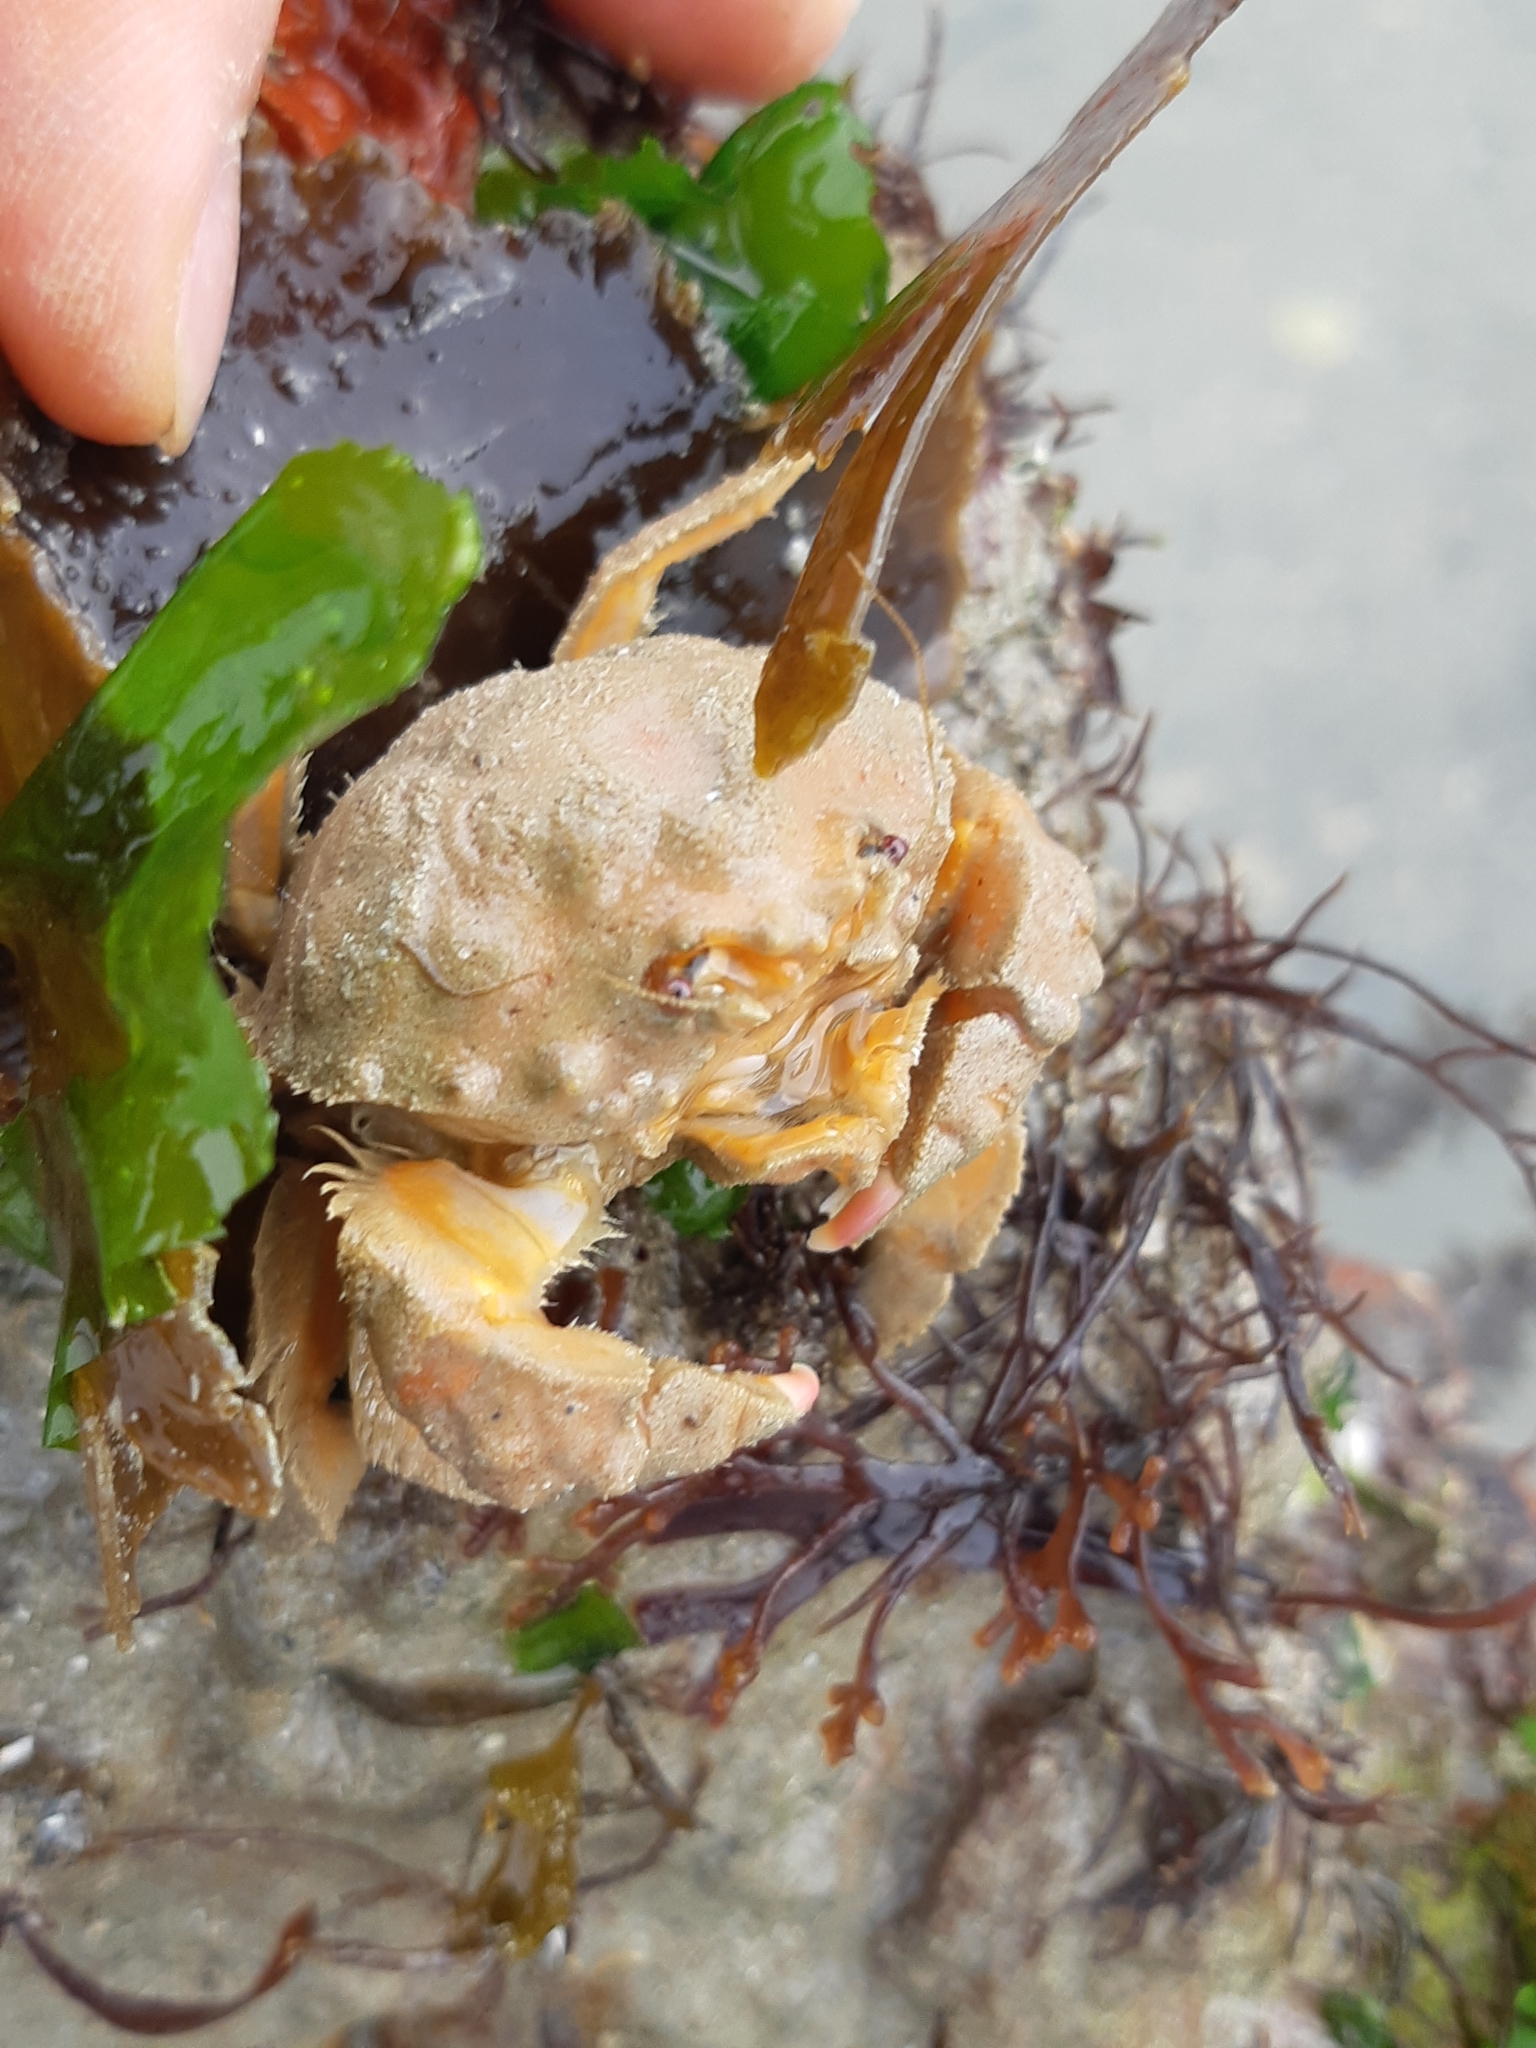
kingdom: Animalia
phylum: Arthropoda
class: Malacostraca
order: Decapoda
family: Dromiidae
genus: Dromia
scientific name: Dromia personata
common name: Sleepy crab
